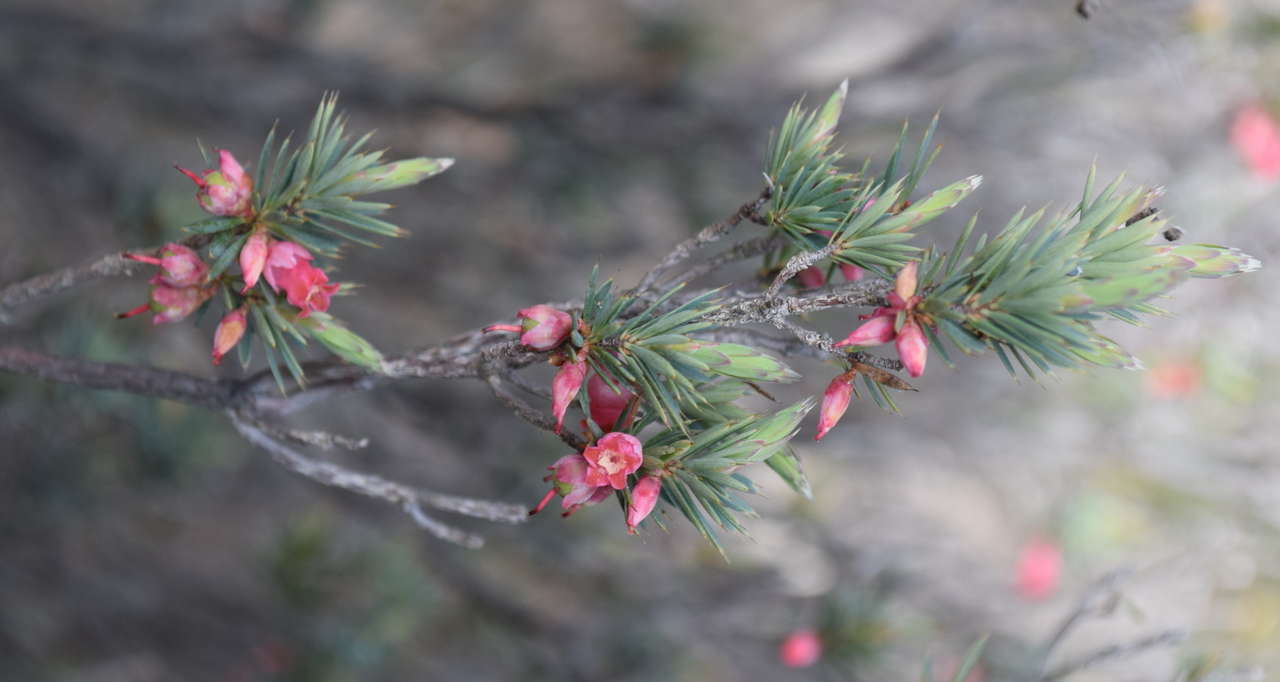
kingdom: Plantae
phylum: Tracheophyta
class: Magnoliopsida
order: Ericales
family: Ericaceae
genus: Brachyloma
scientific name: Brachyloma ericoides
